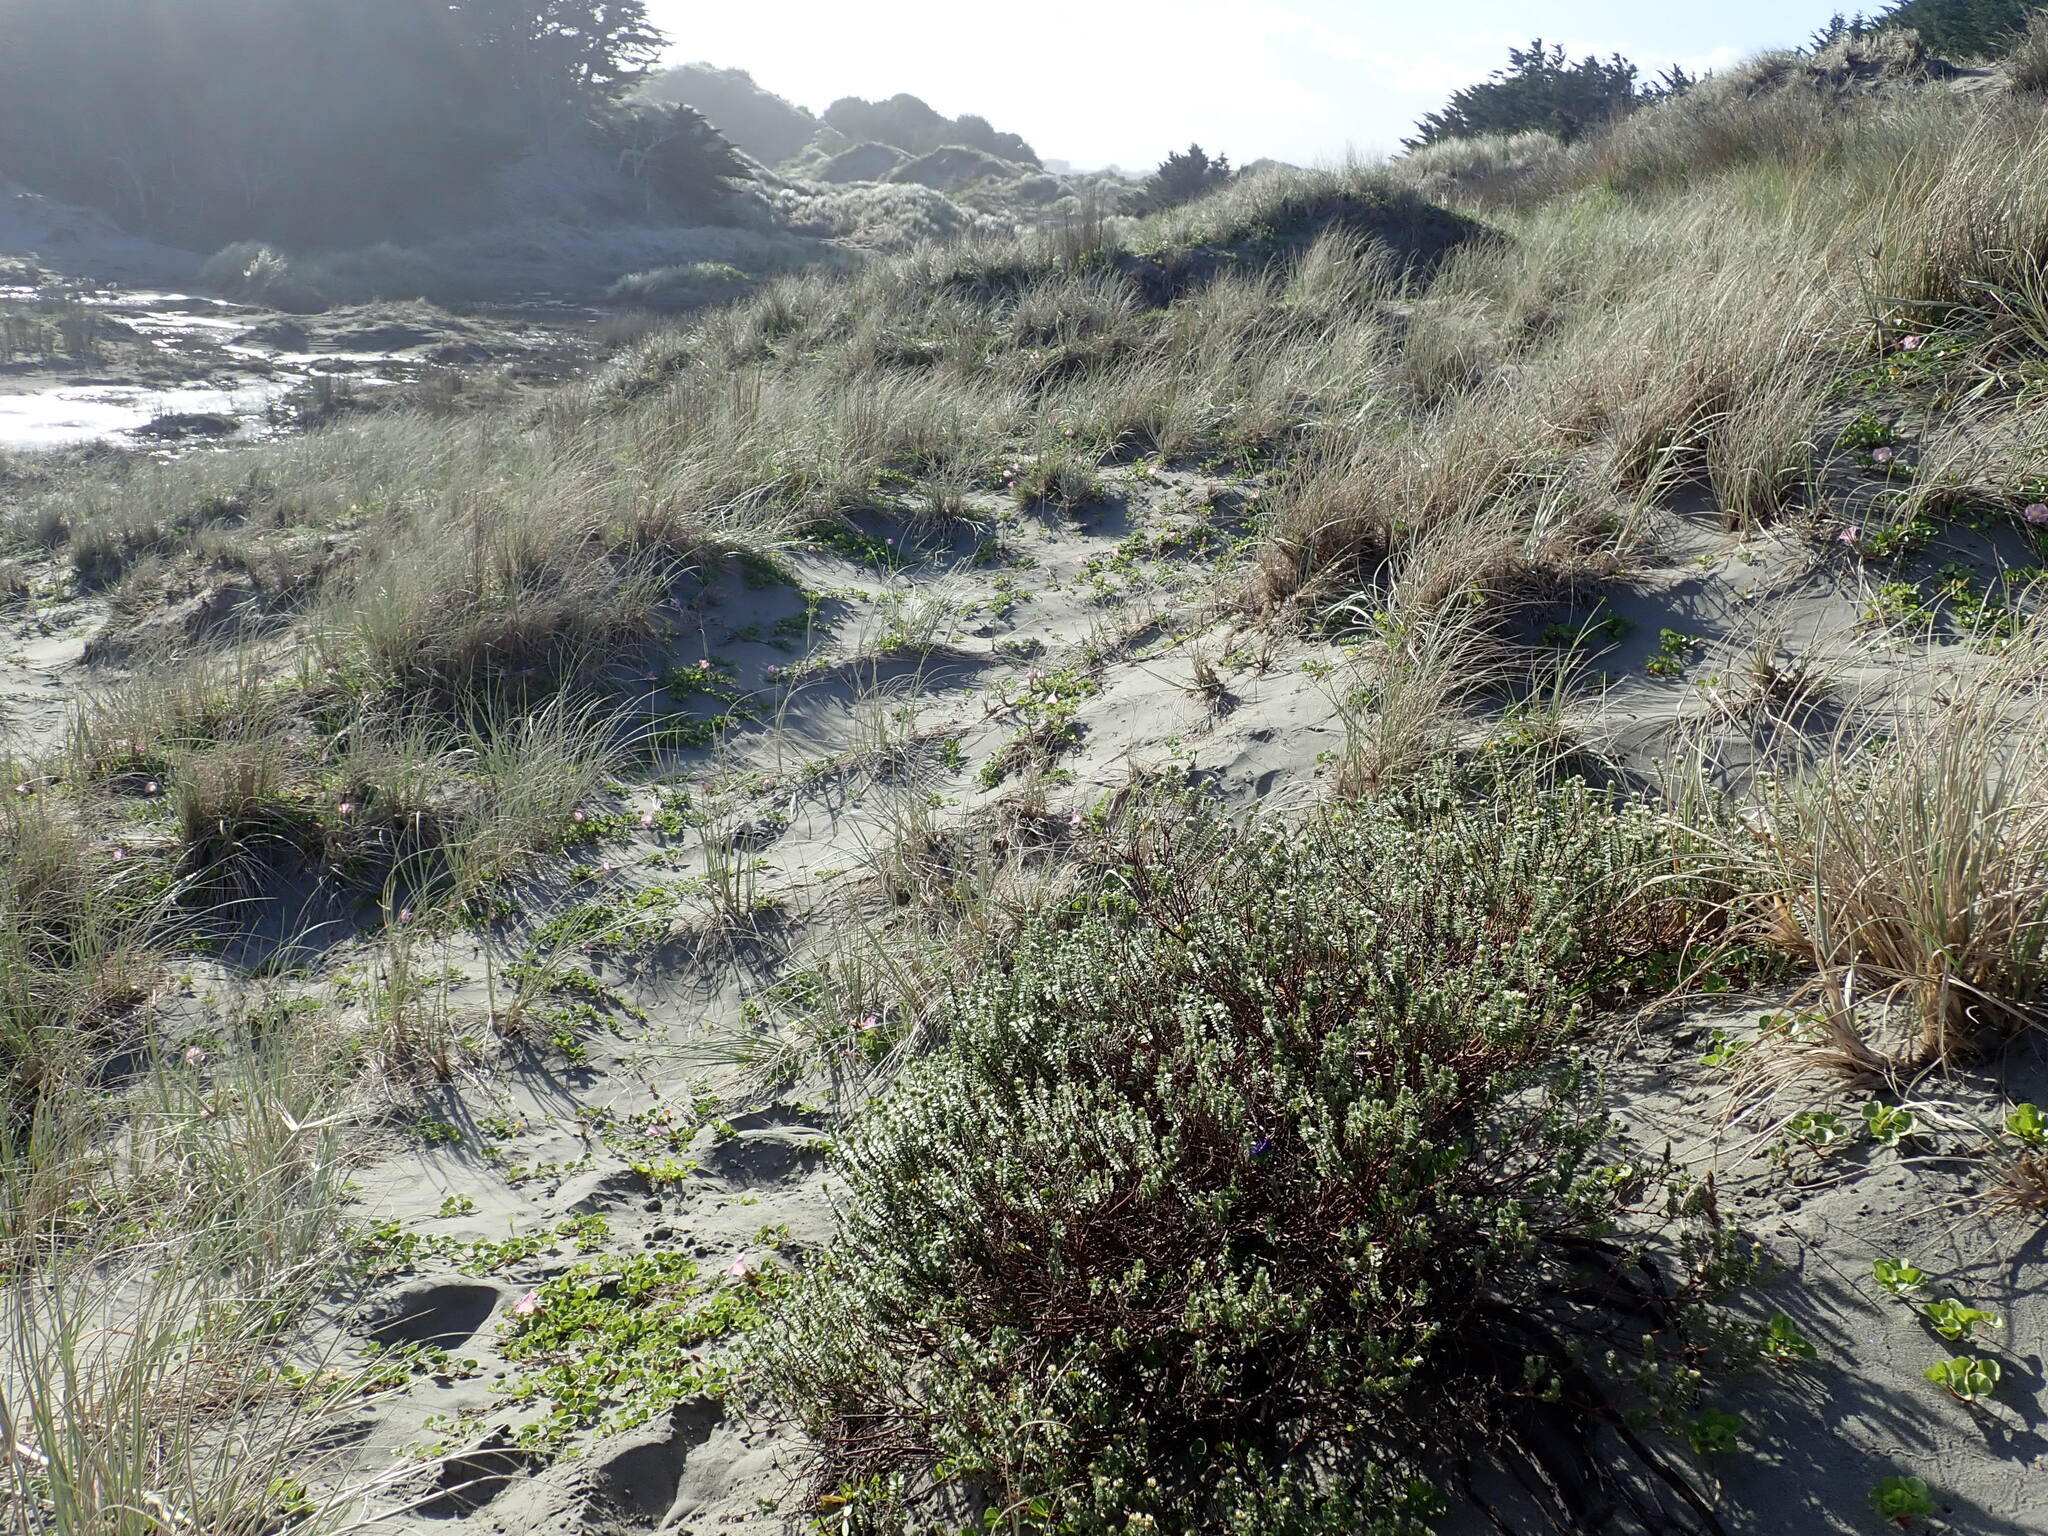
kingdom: Plantae
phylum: Tracheophyta
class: Magnoliopsida
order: Malvales
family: Thymelaeaceae
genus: Pimelea
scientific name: Pimelea villosa
